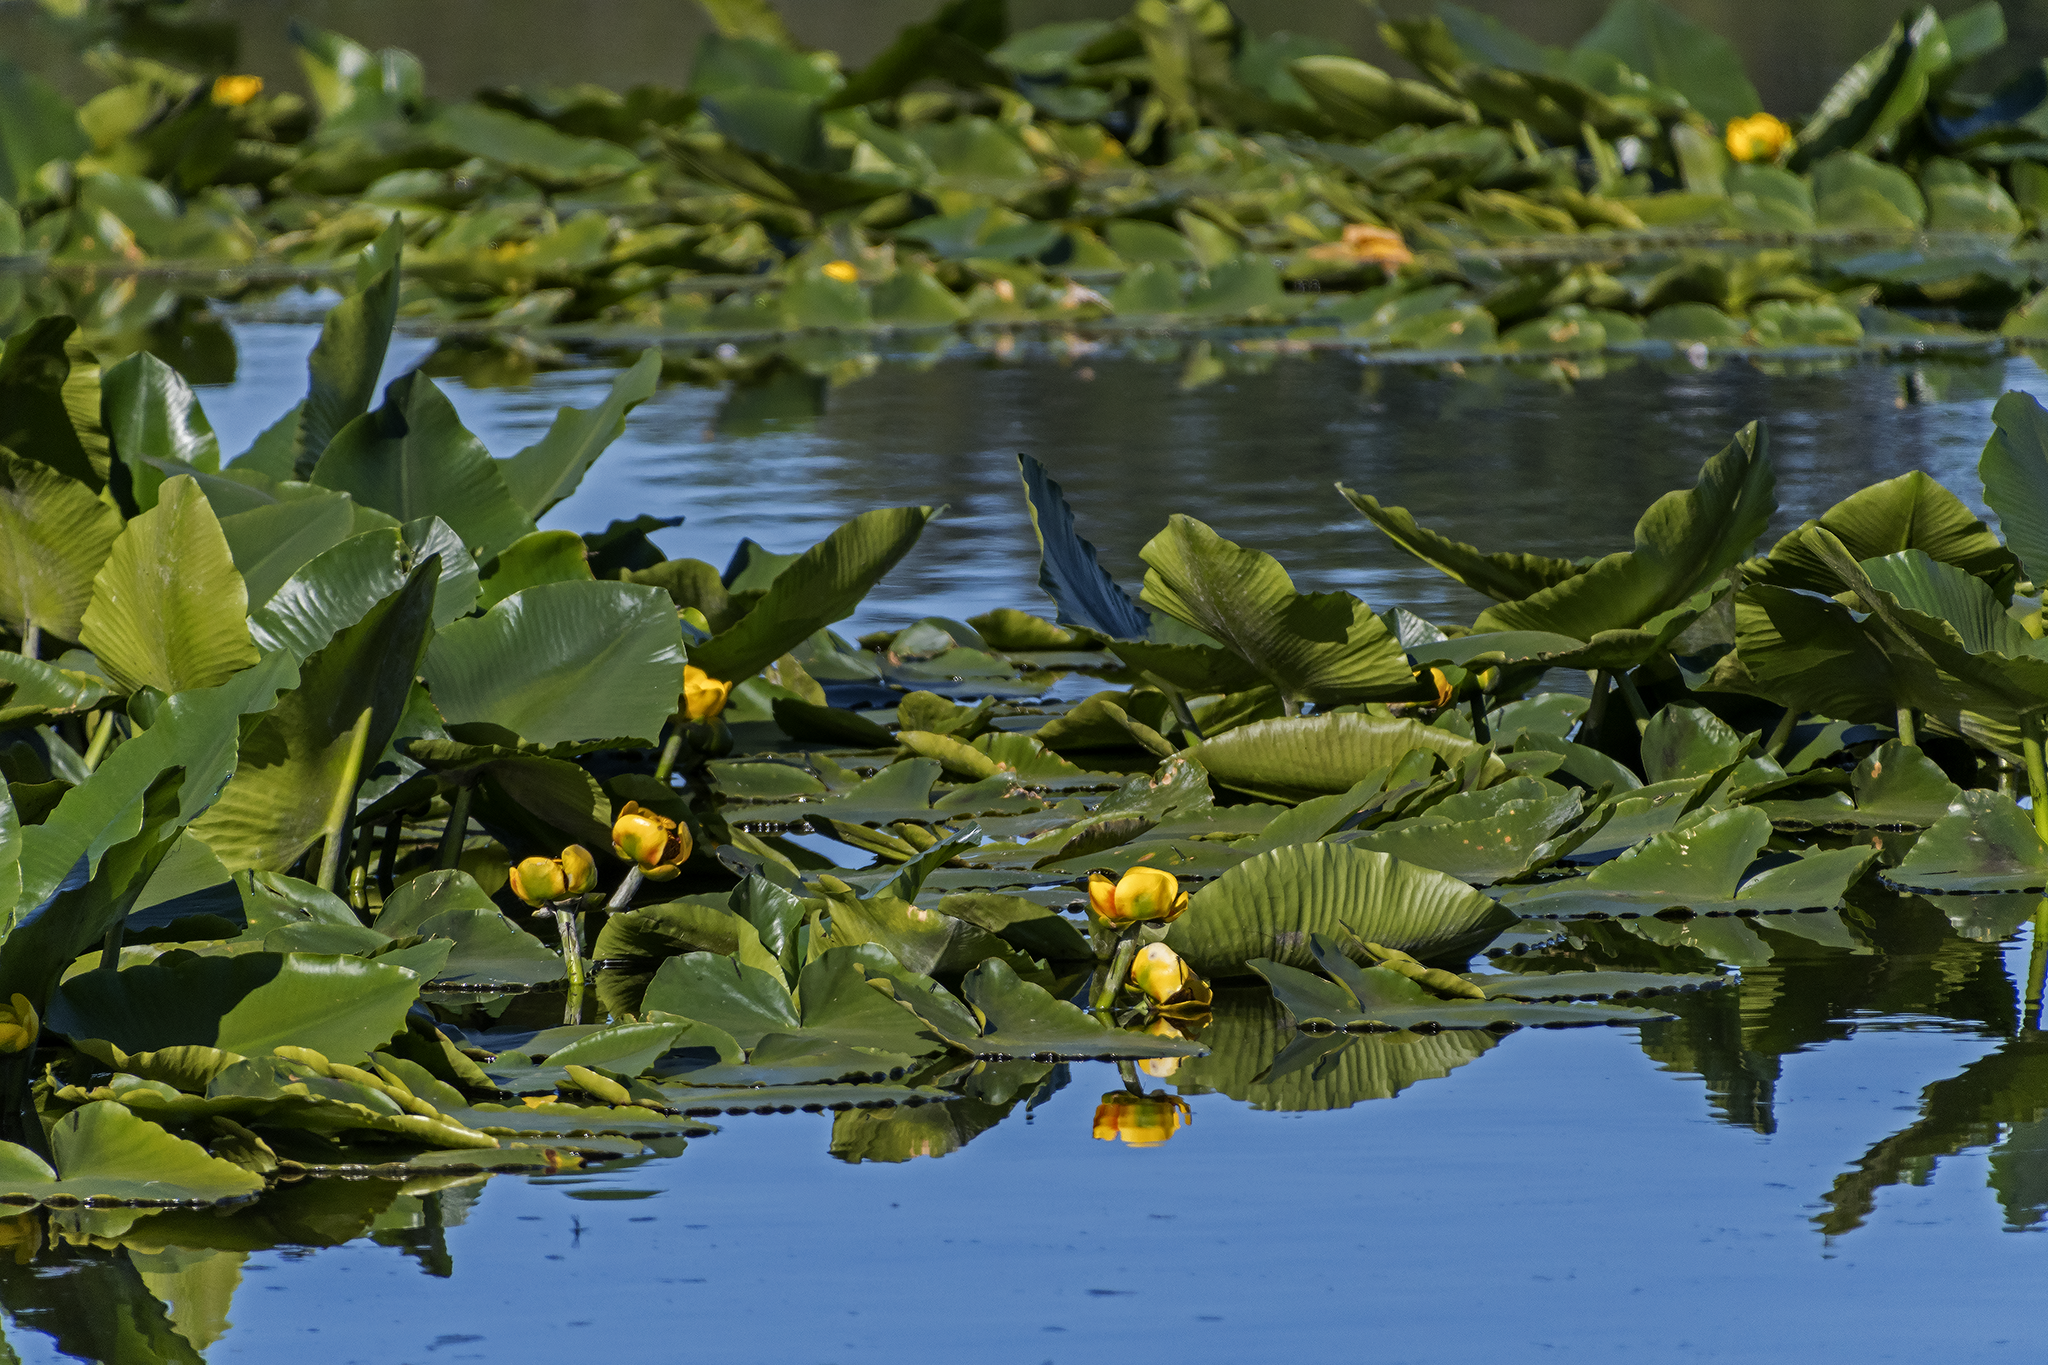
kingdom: Plantae
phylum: Tracheophyta
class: Magnoliopsida
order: Nymphaeales
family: Nymphaeaceae
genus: Nuphar
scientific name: Nuphar polysepala
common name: Rocky mountain cow-lily
